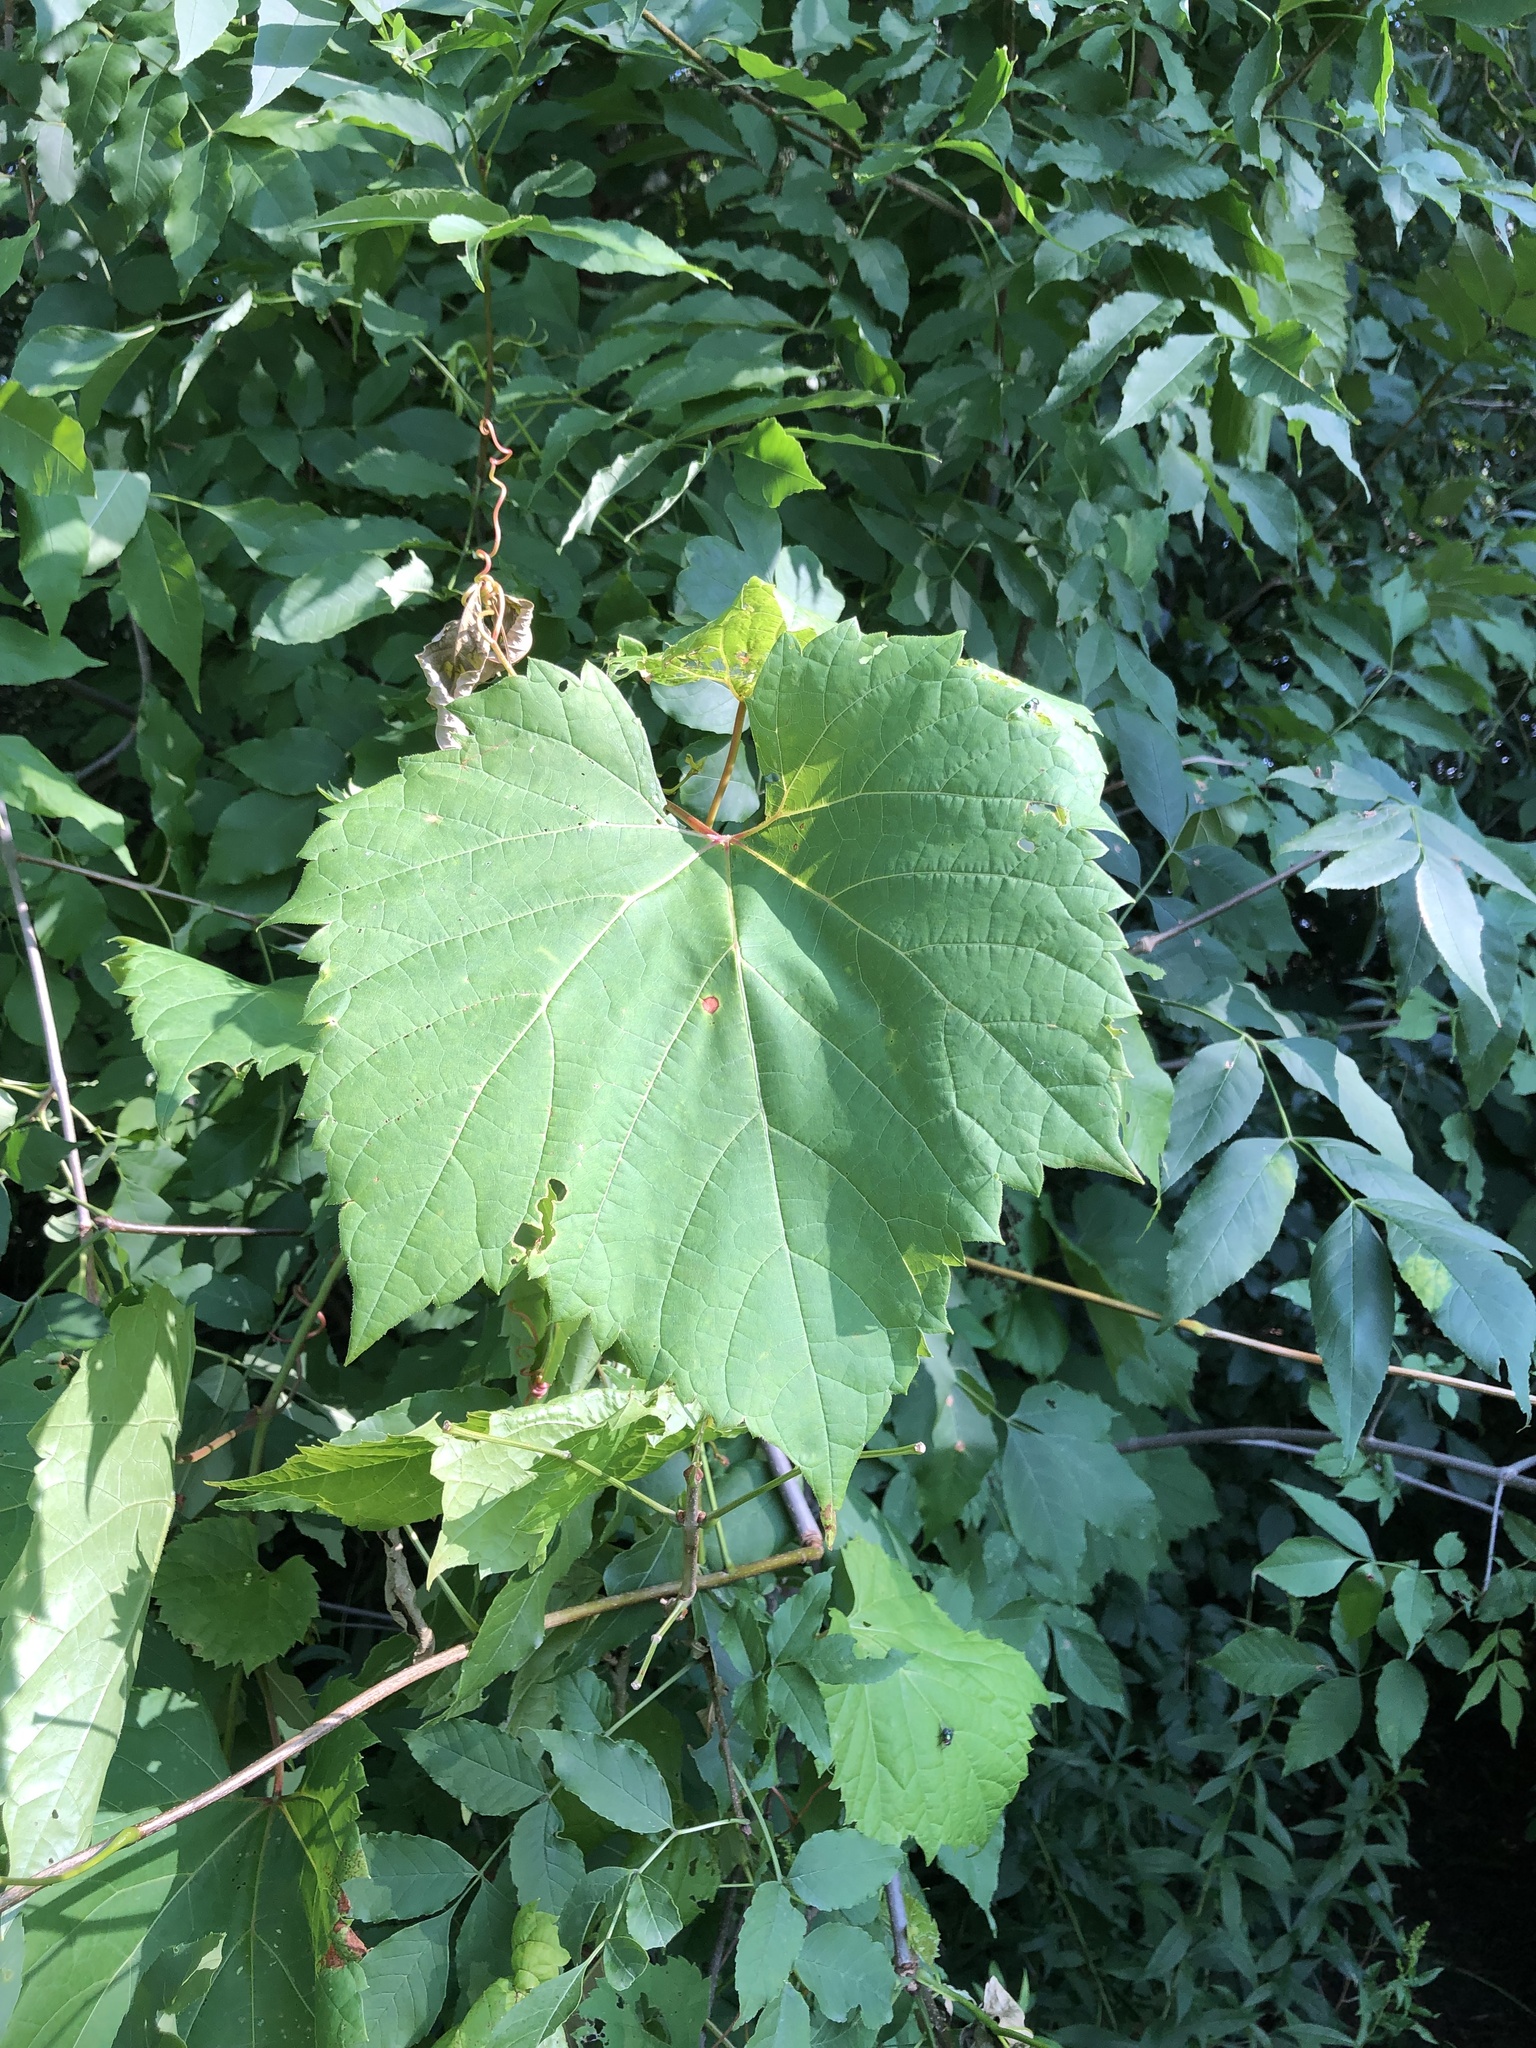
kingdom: Plantae
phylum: Tracheophyta
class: Magnoliopsida
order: Vitales
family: Vitaceae
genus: Vitis
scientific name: Vitis riparia
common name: Frost grape
